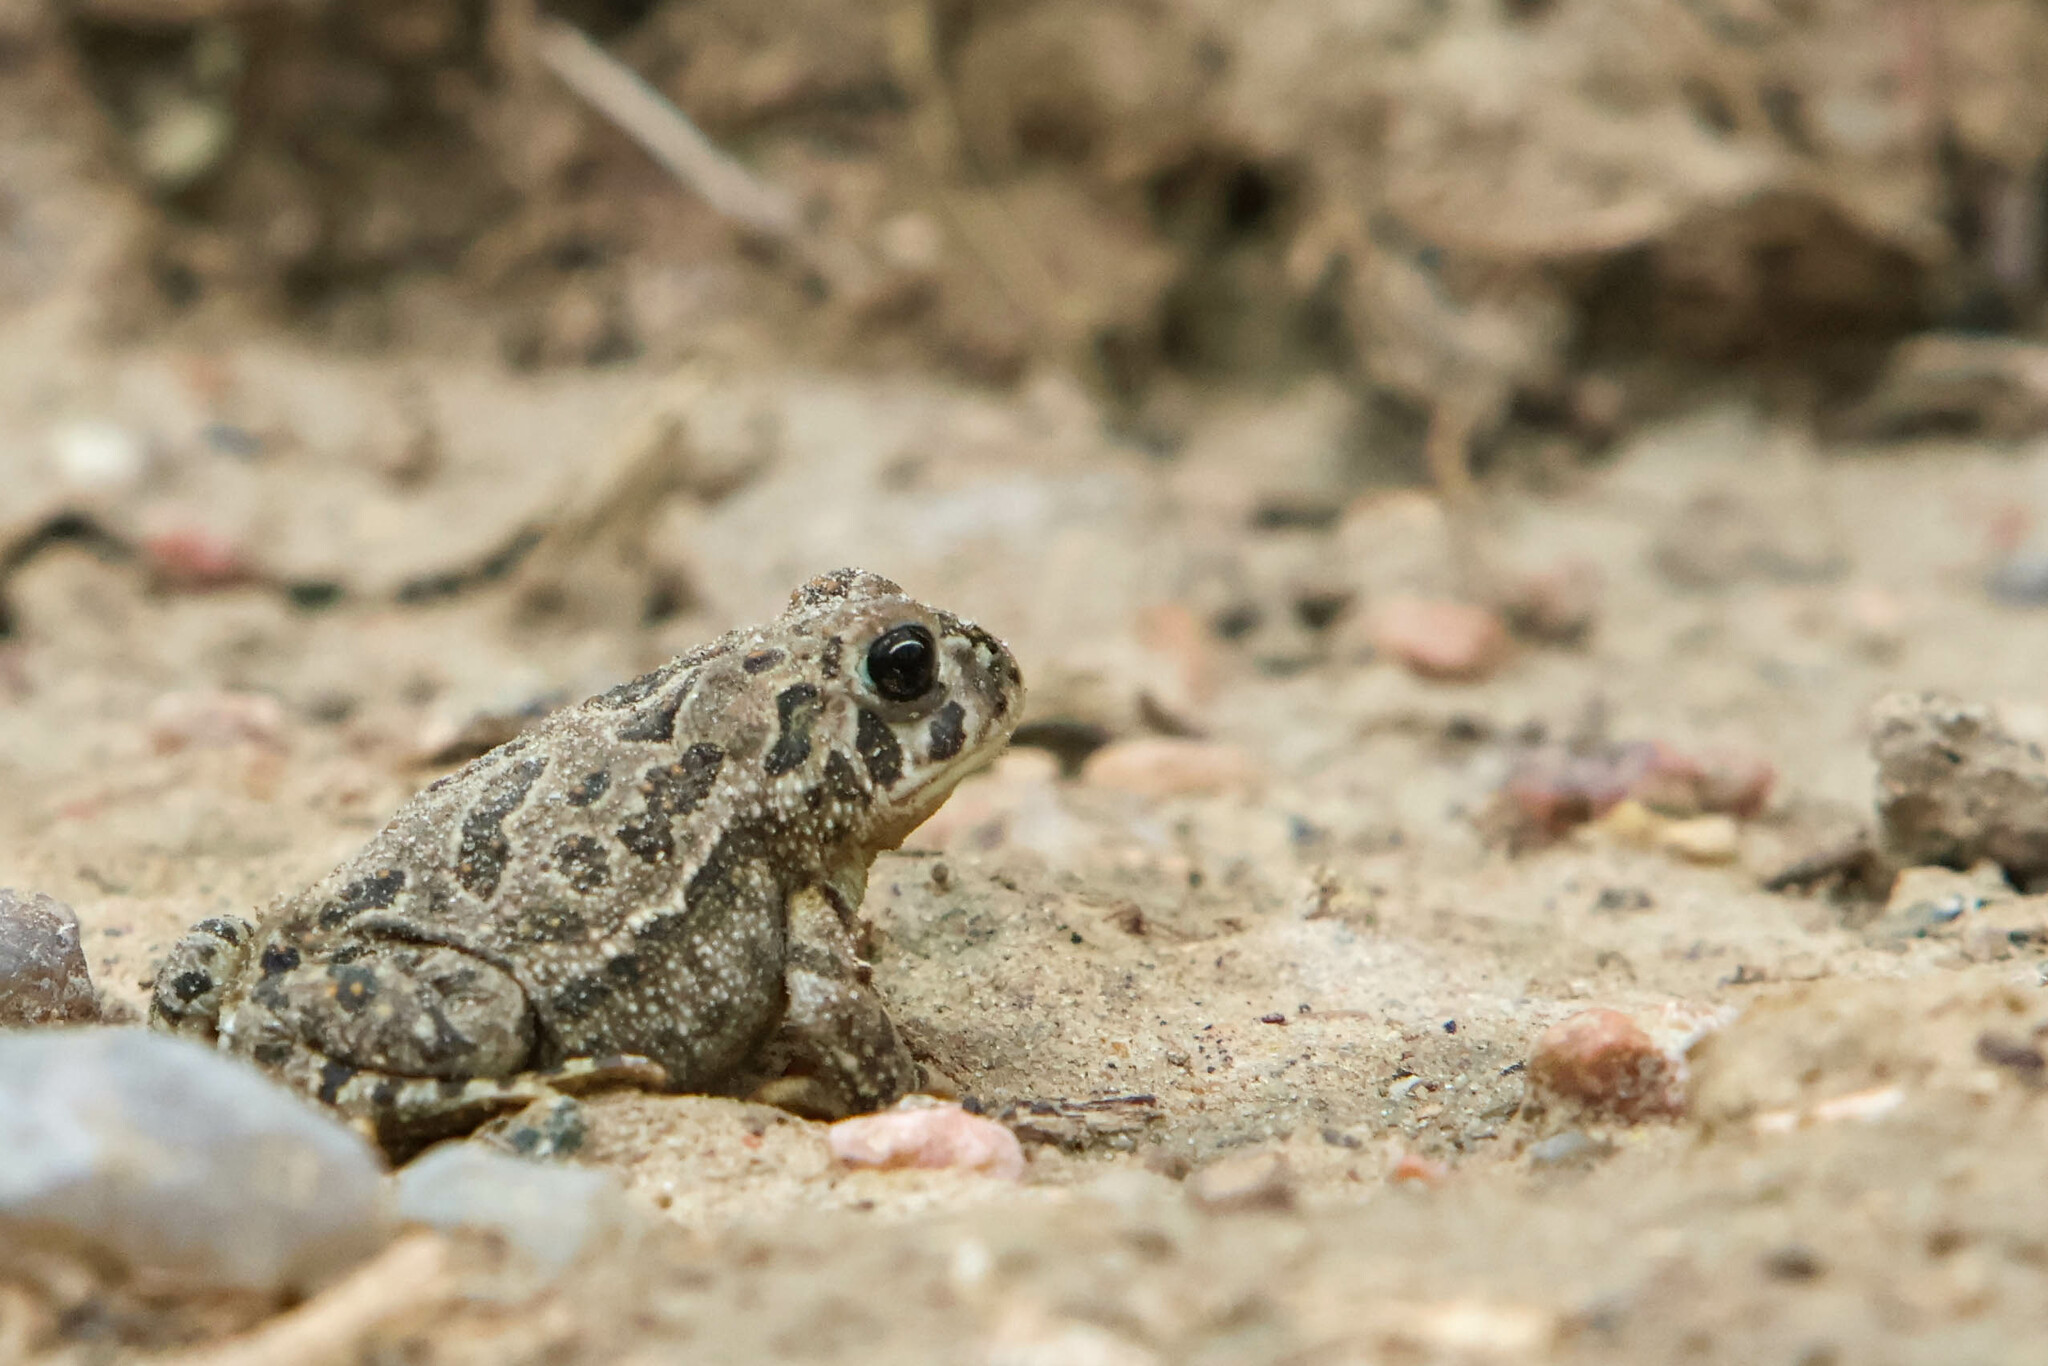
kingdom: Animalia
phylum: Chordata
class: Amphibia
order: Anura
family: Bufonidae
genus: Anaxyrus
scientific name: Anaxyrus cognatus
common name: Great plains toad
